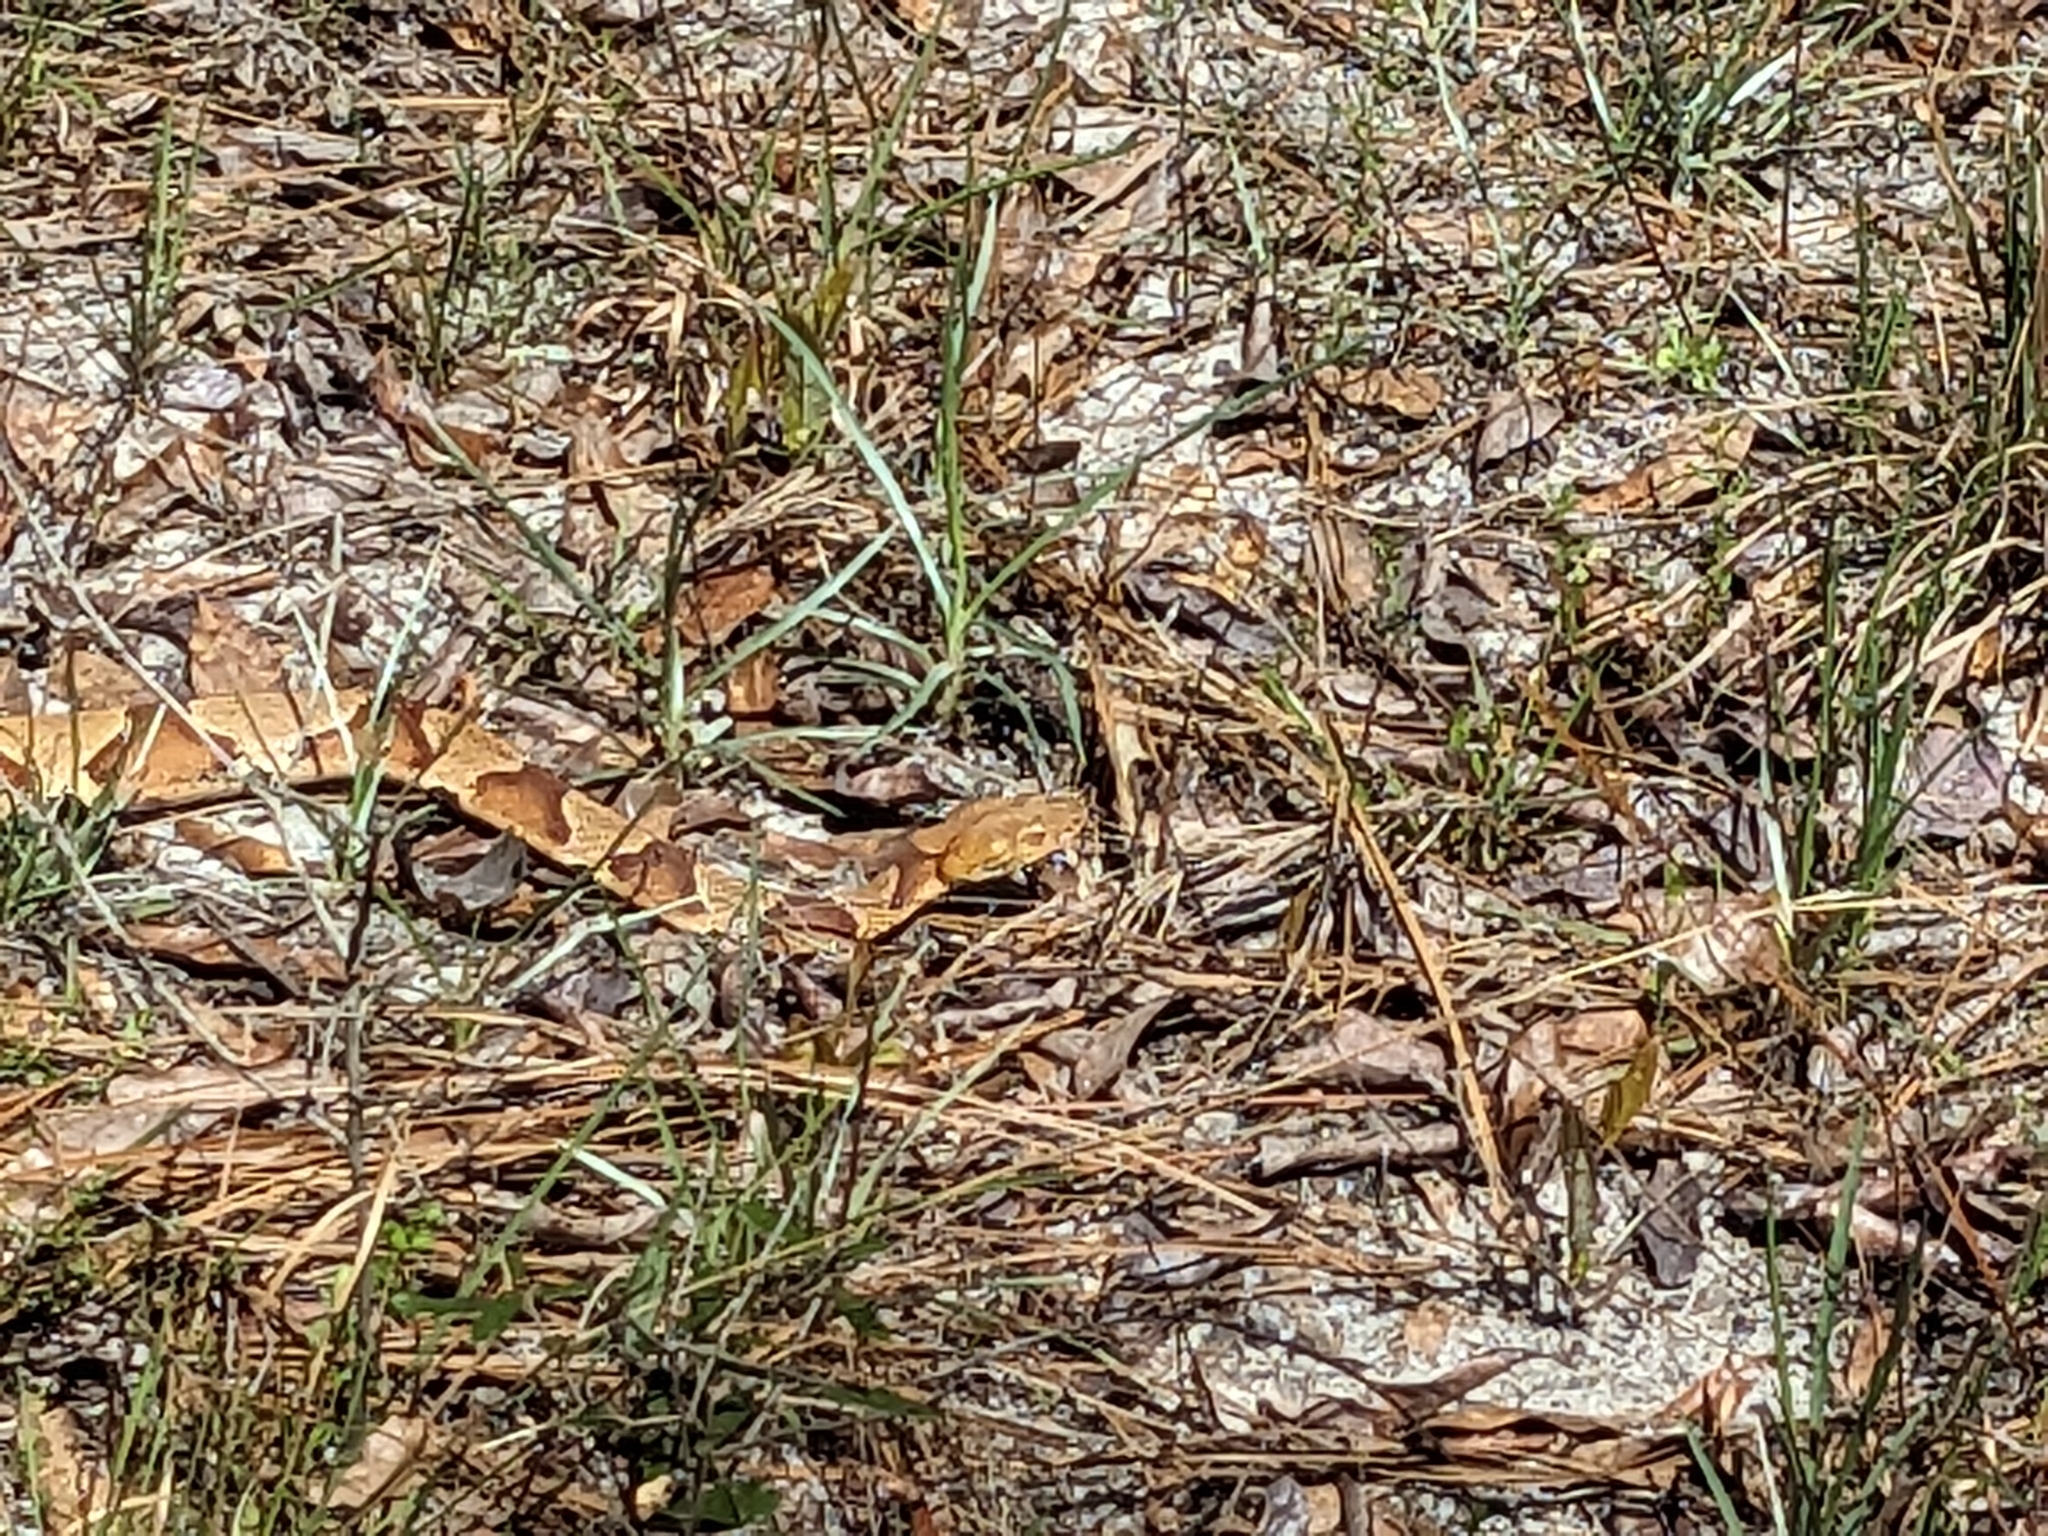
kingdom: Animalia
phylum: Chordata
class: Squamata
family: Viperidae
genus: Agkistrodon
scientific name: Agkistrodon contortrix
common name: Northern copperhead
